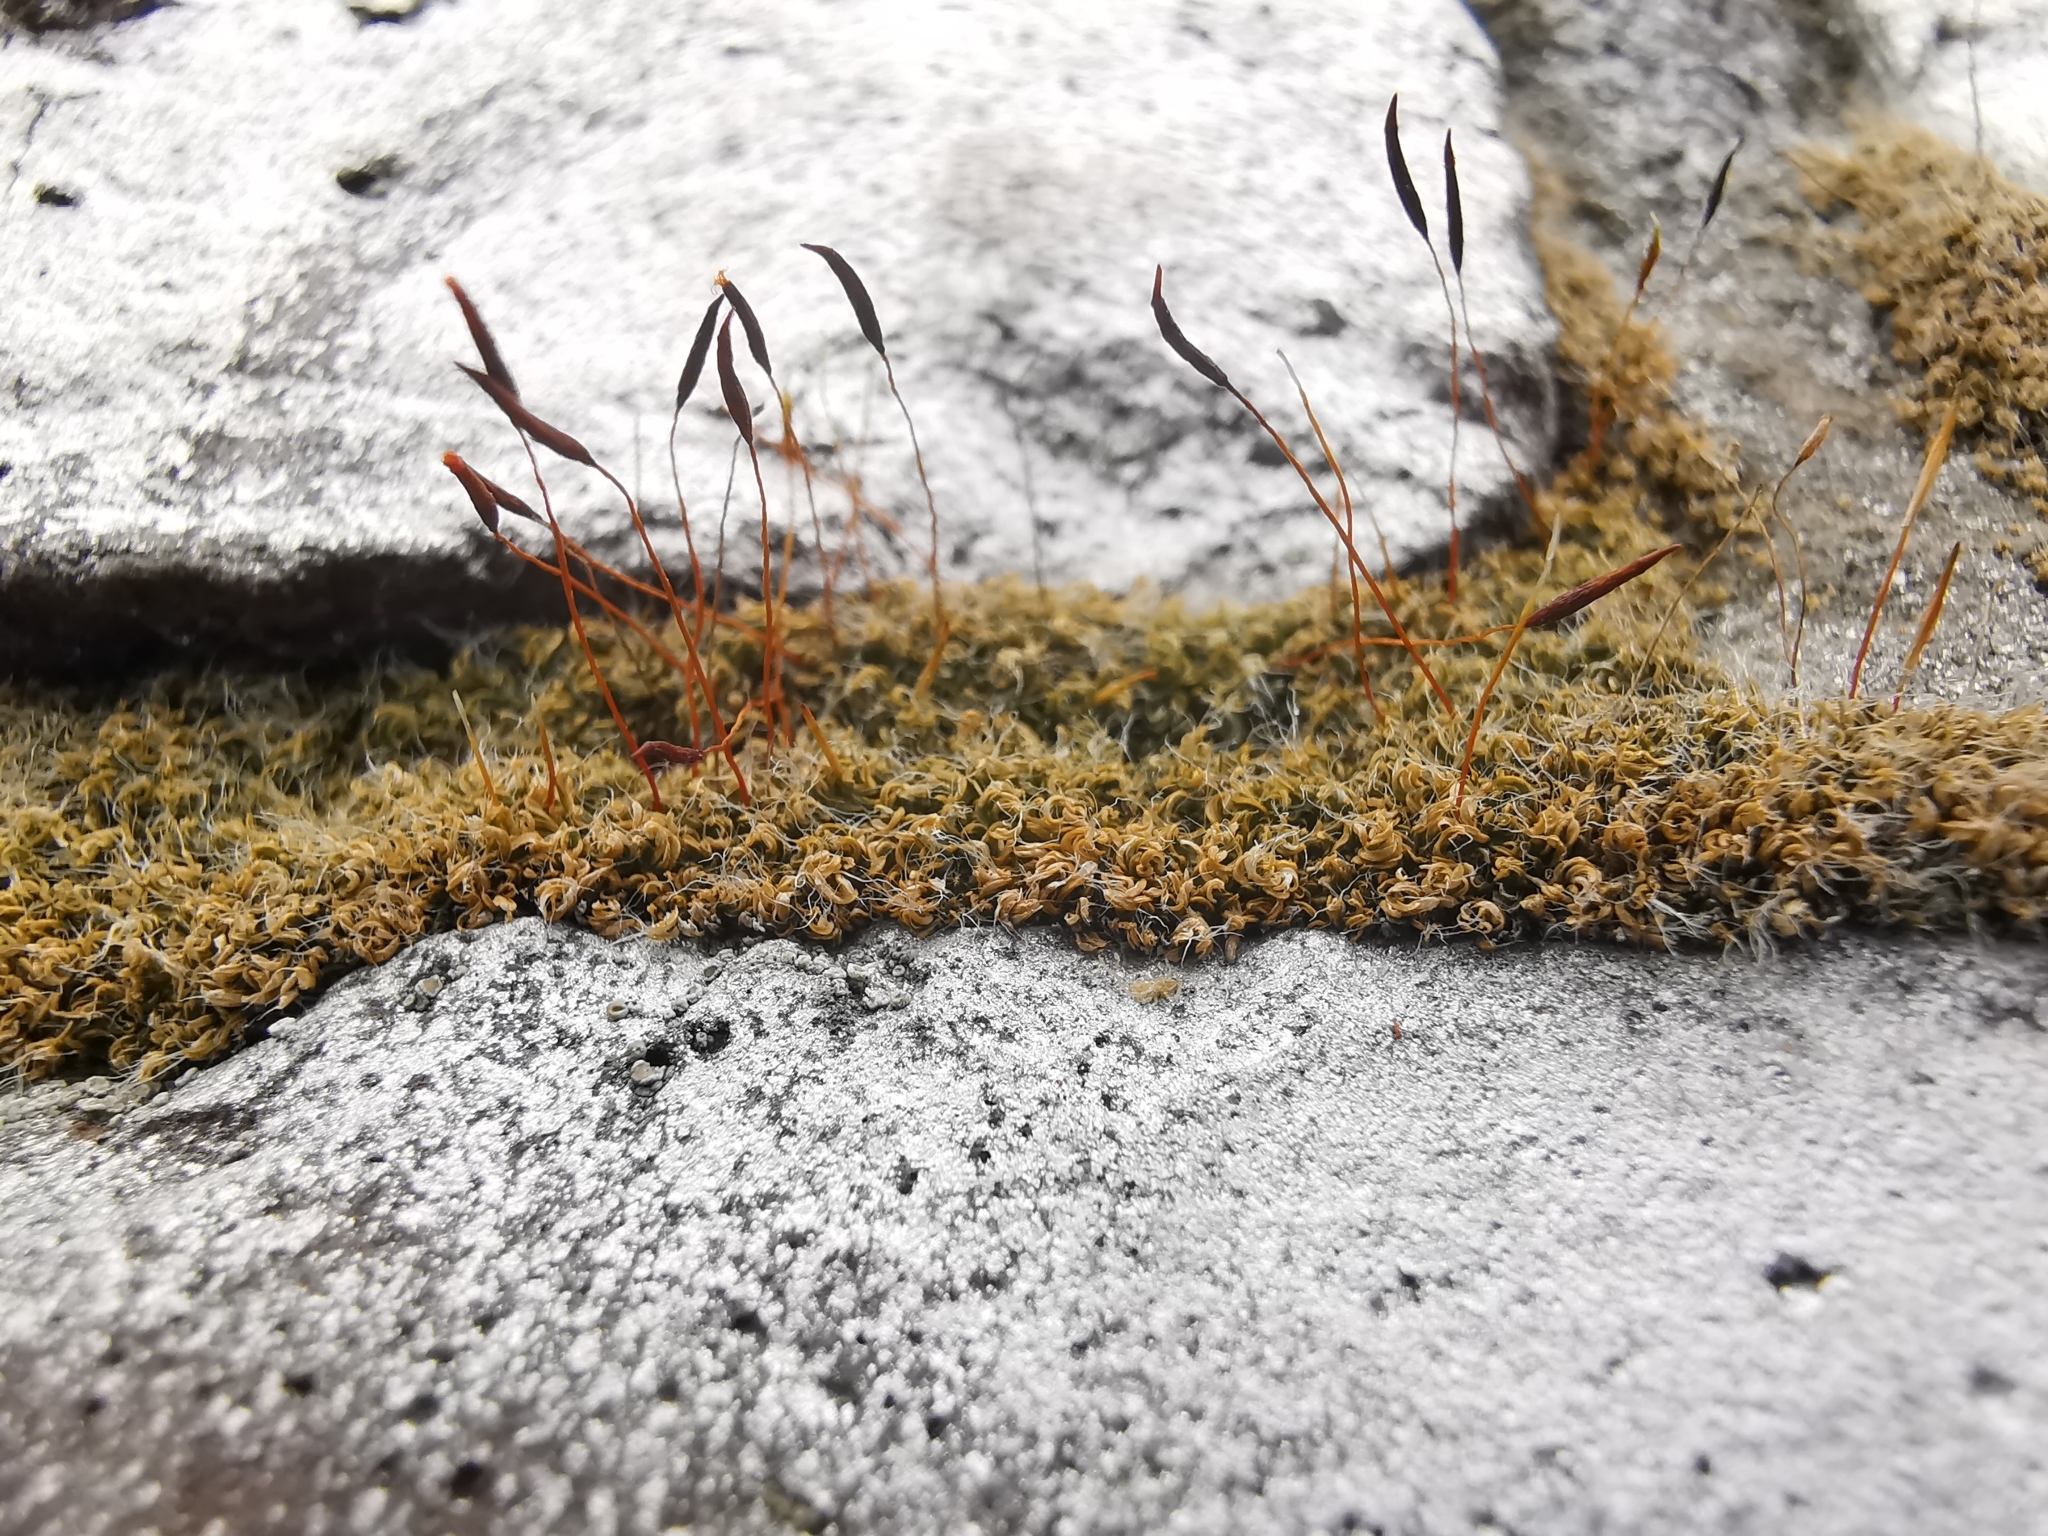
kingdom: Plantae
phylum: Bryophyta
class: Bryopsida
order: Pottiales
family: Pottiaceae
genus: Tortula
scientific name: Tortula muralis
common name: Wall screw-moss
